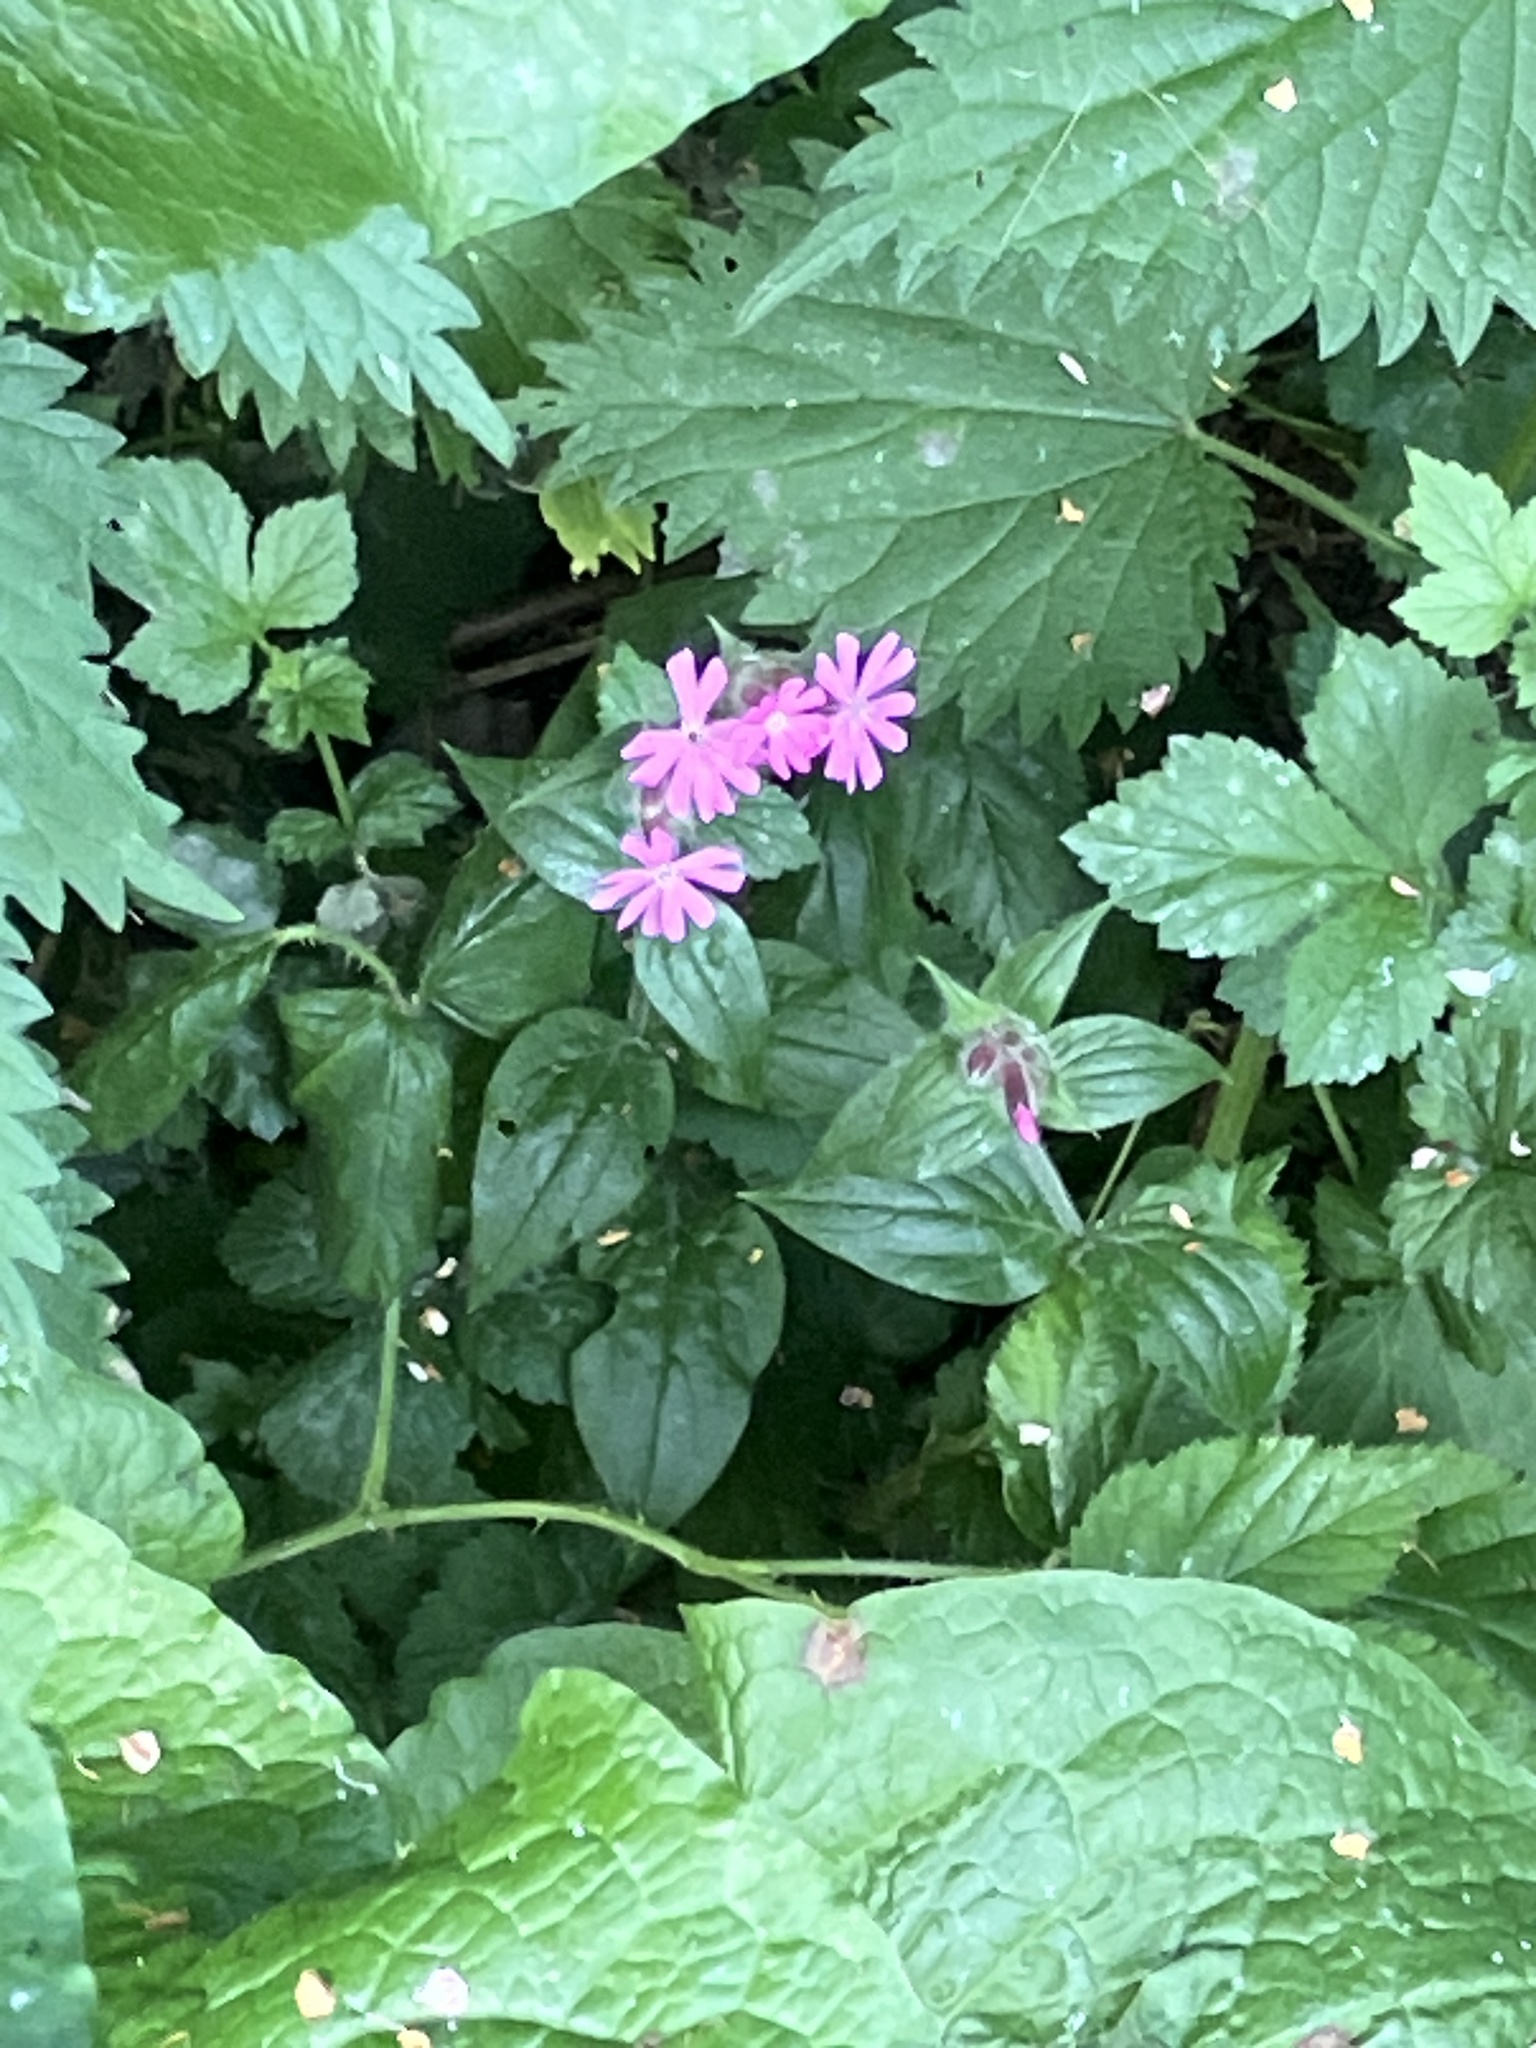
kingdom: Plantae
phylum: Tracheophyta
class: Magnoliopsida
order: Caryophyllales
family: Caryophyllaceae
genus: Silene
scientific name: Silene dioica
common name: Red campion
